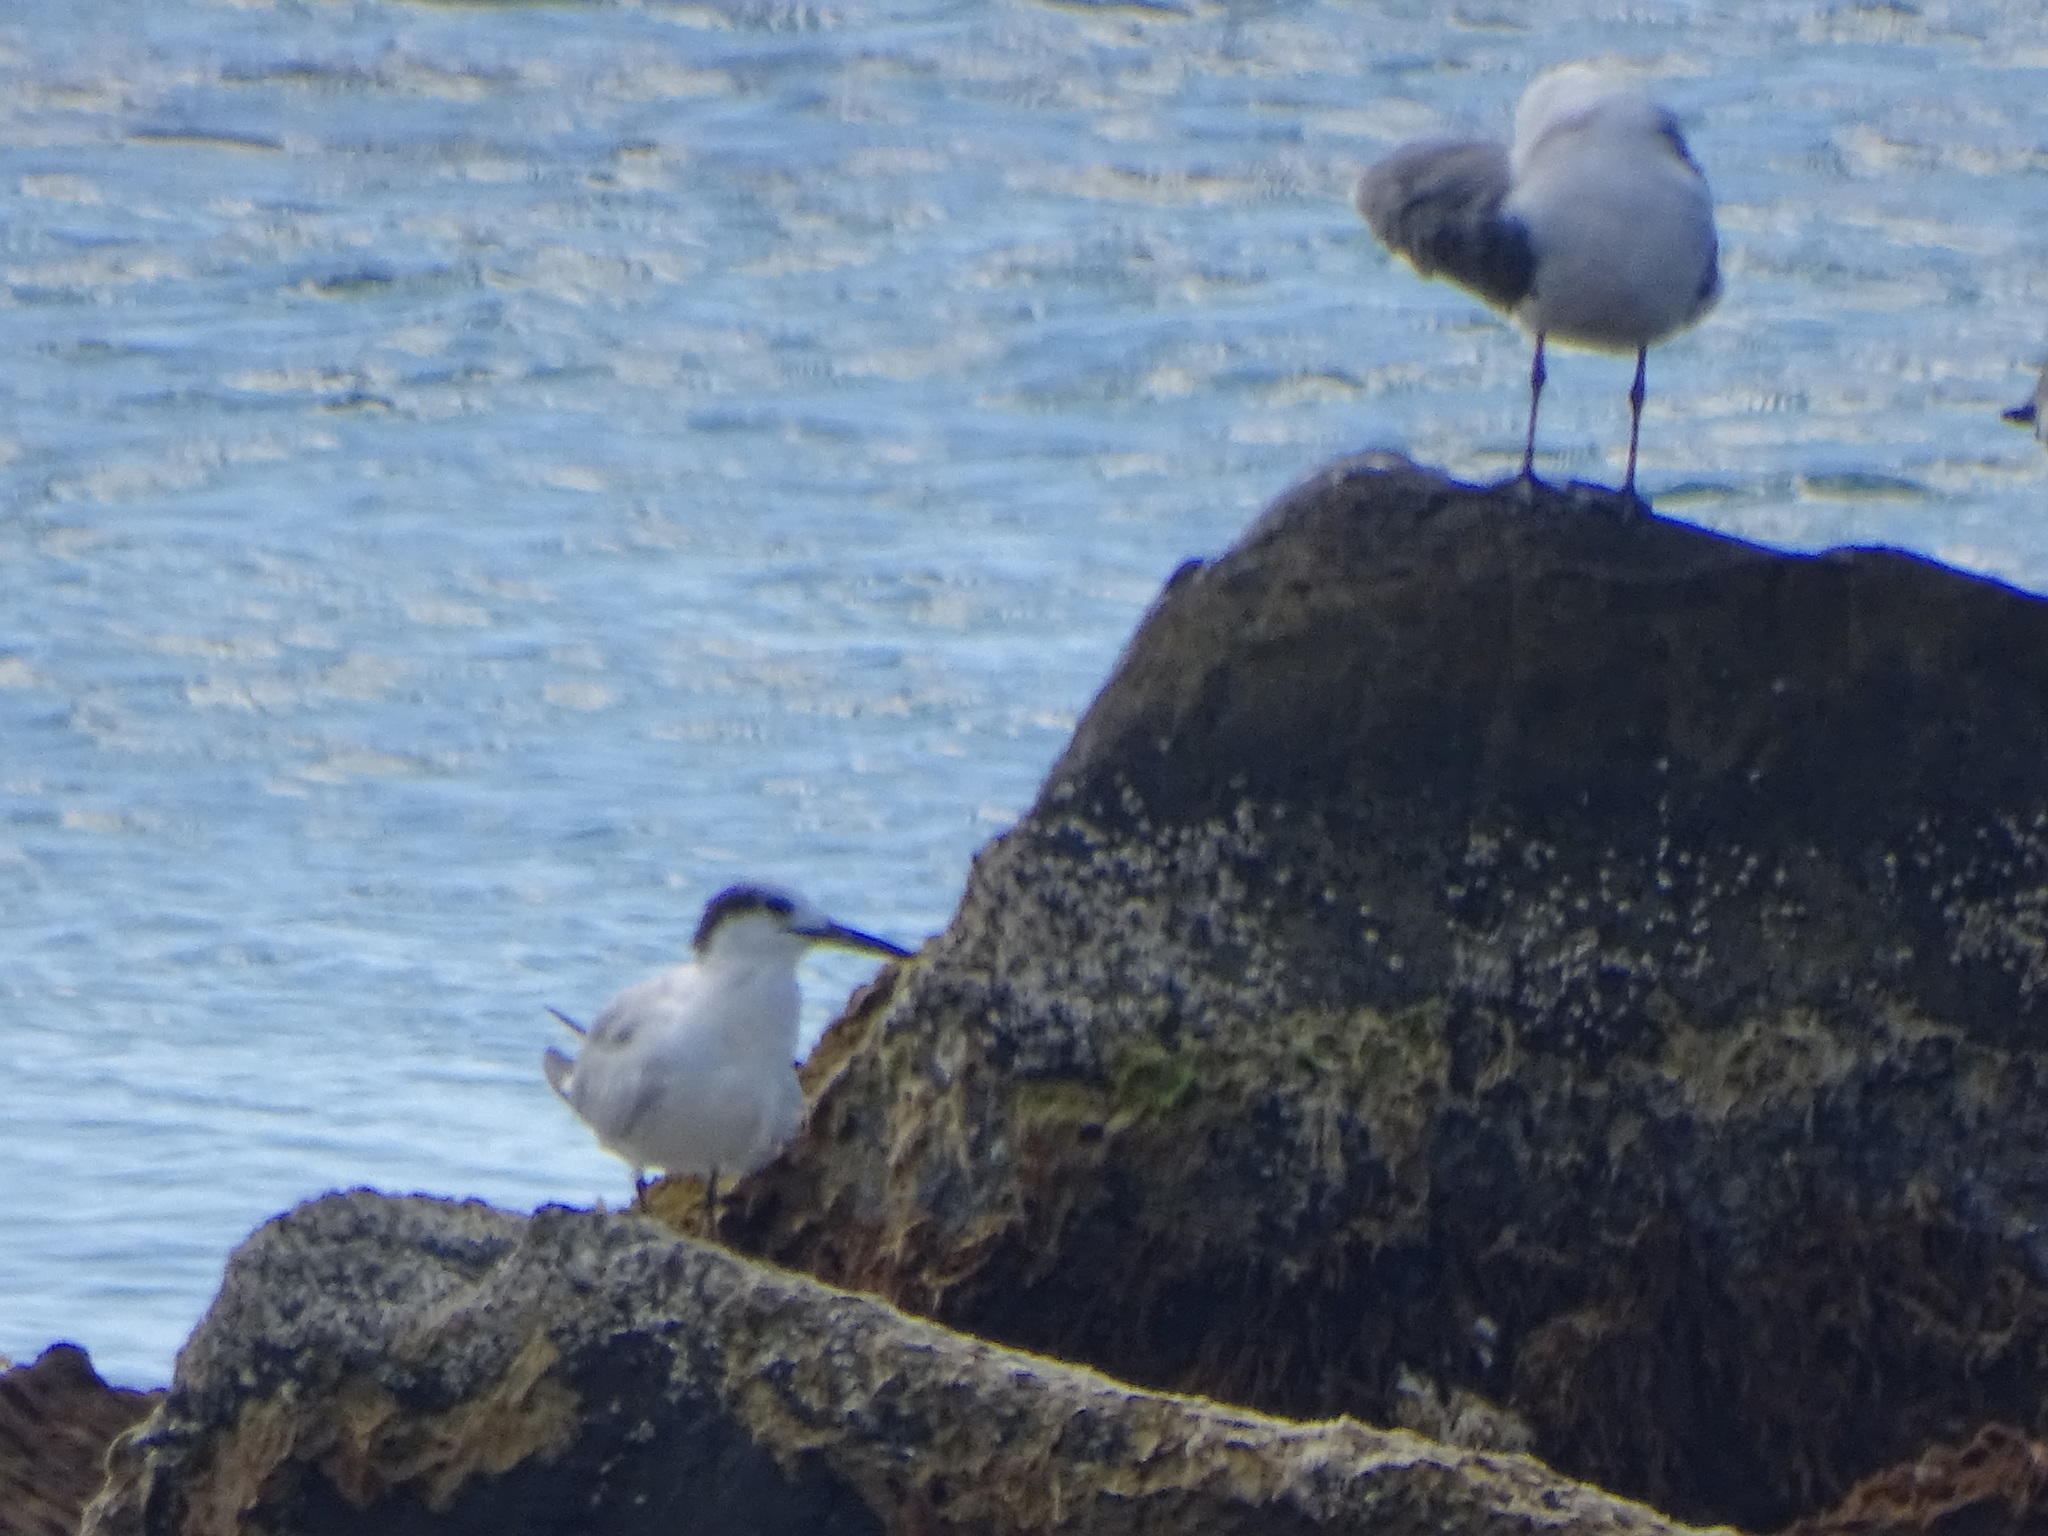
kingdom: Animalia
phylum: Chordata
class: Aves
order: Charadriiformes
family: Laridae
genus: Thalasseus
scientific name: Thalasseus sandvicensis
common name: Sandwich tern
